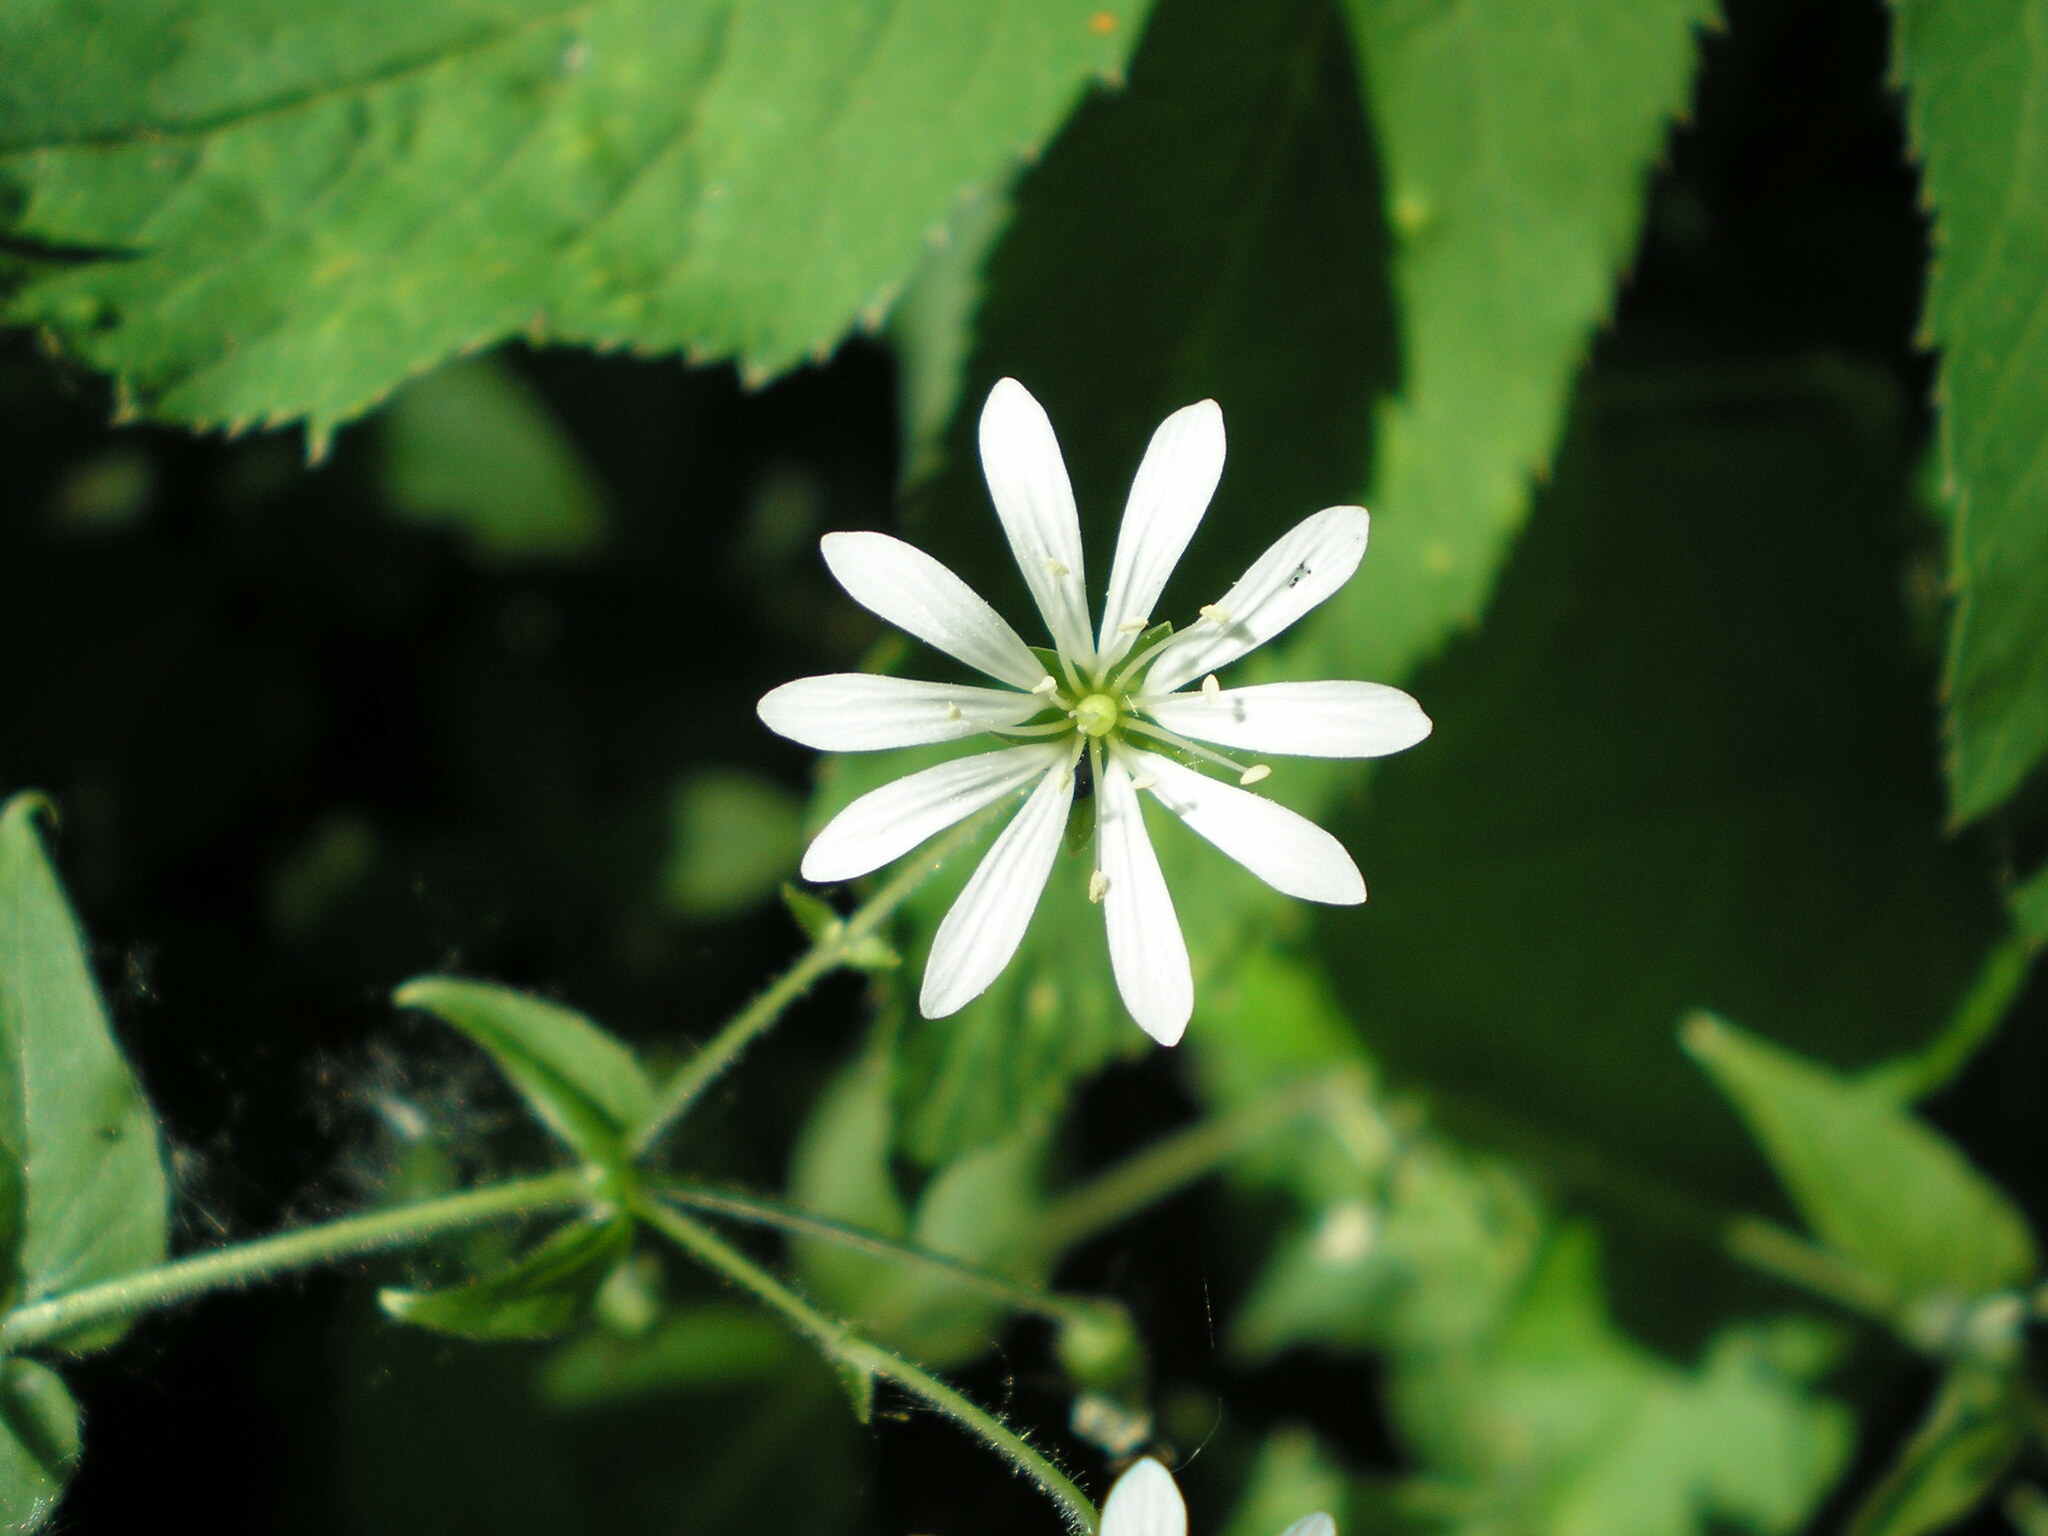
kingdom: Plantae
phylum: Tracheophyta
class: Magnoliopsida
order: Caryophyllales
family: Caryophyllaceae
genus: Stellaria
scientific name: Stellaria nemorum
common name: Wood stitchwort
